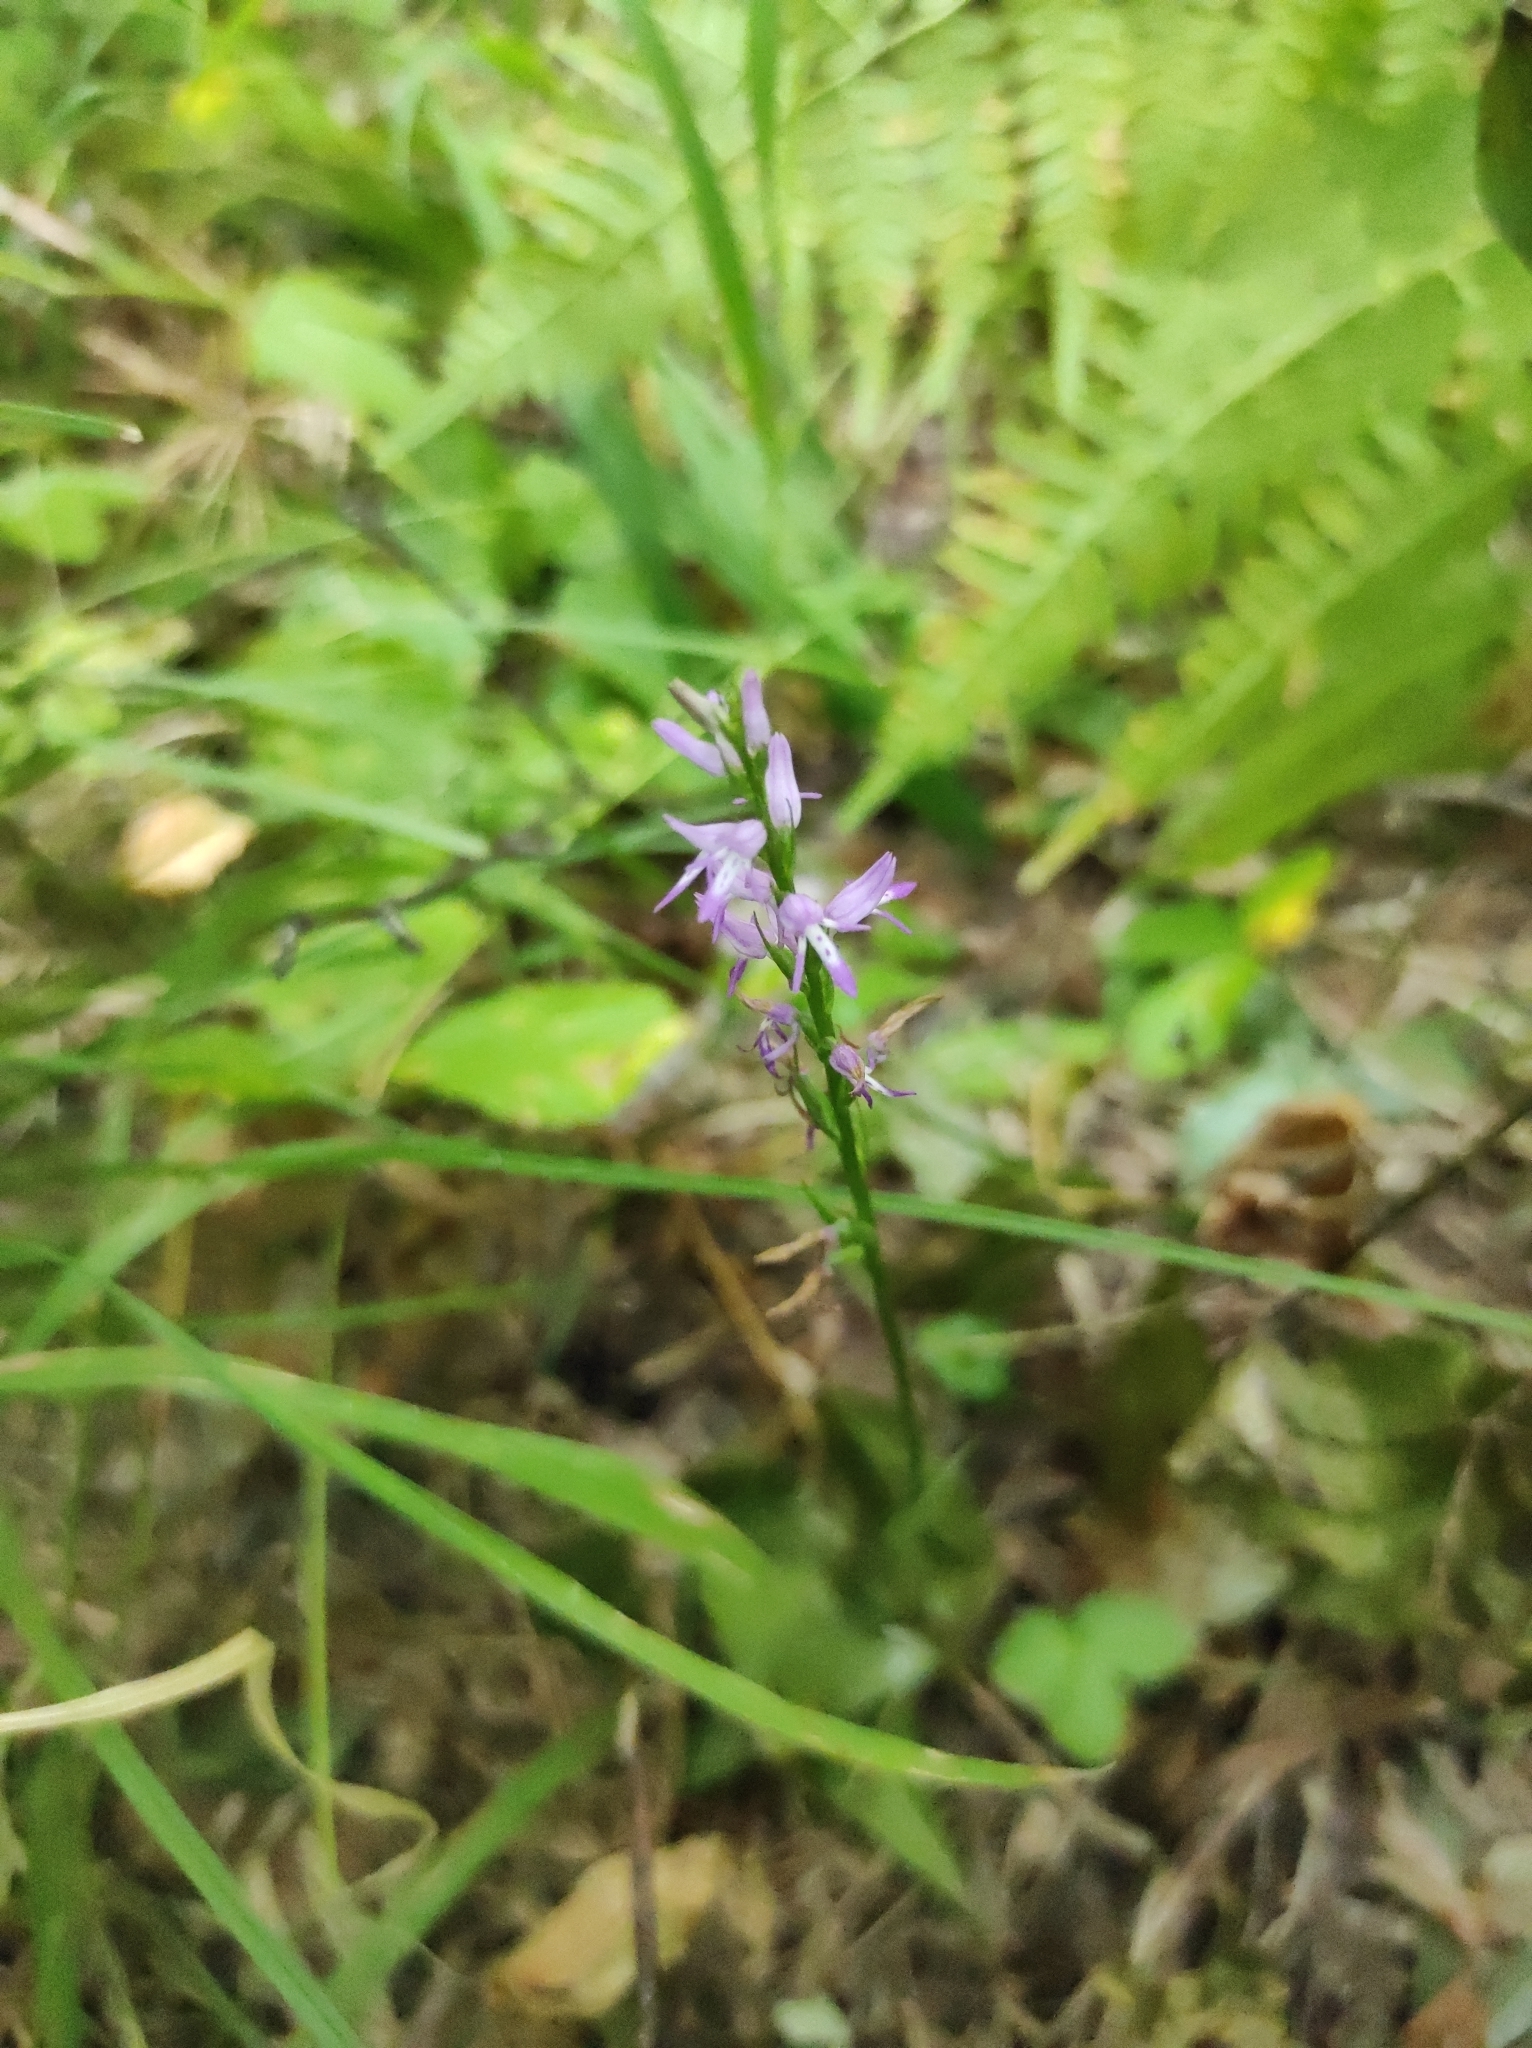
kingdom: Plantae
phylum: Tracheophyta
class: Liliopsida
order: Asparagales
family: Orchidaceae
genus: Hemipilia
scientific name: Hemipilia cucullata
